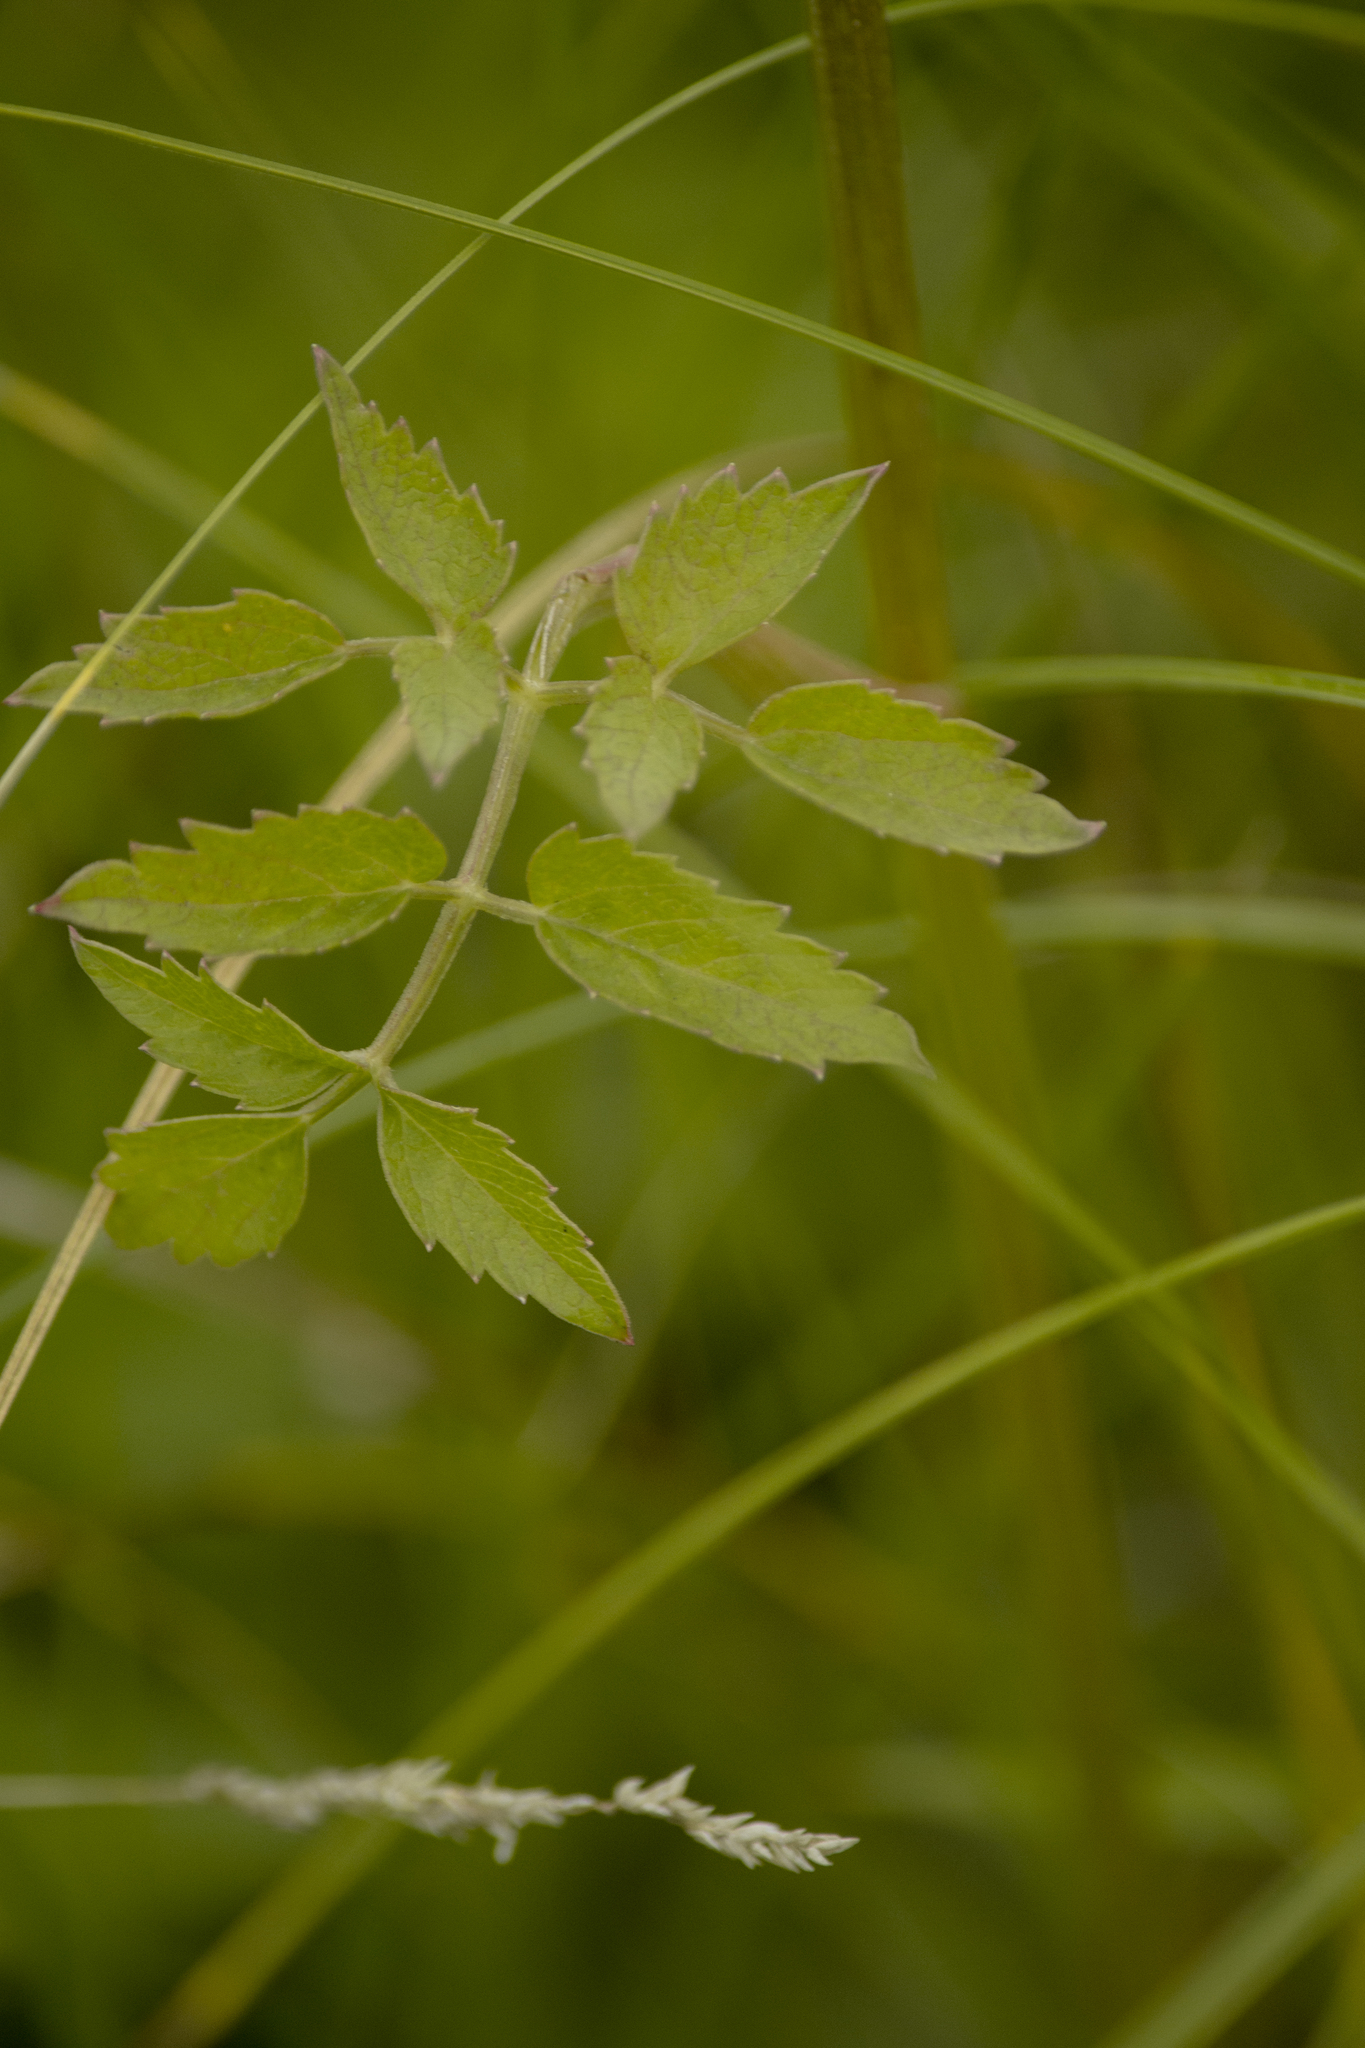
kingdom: Plantae
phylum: Tracheophyta
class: Magnoliopsida
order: Apiales
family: Apiaceae
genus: Ostericum
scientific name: Ostericum palustre
